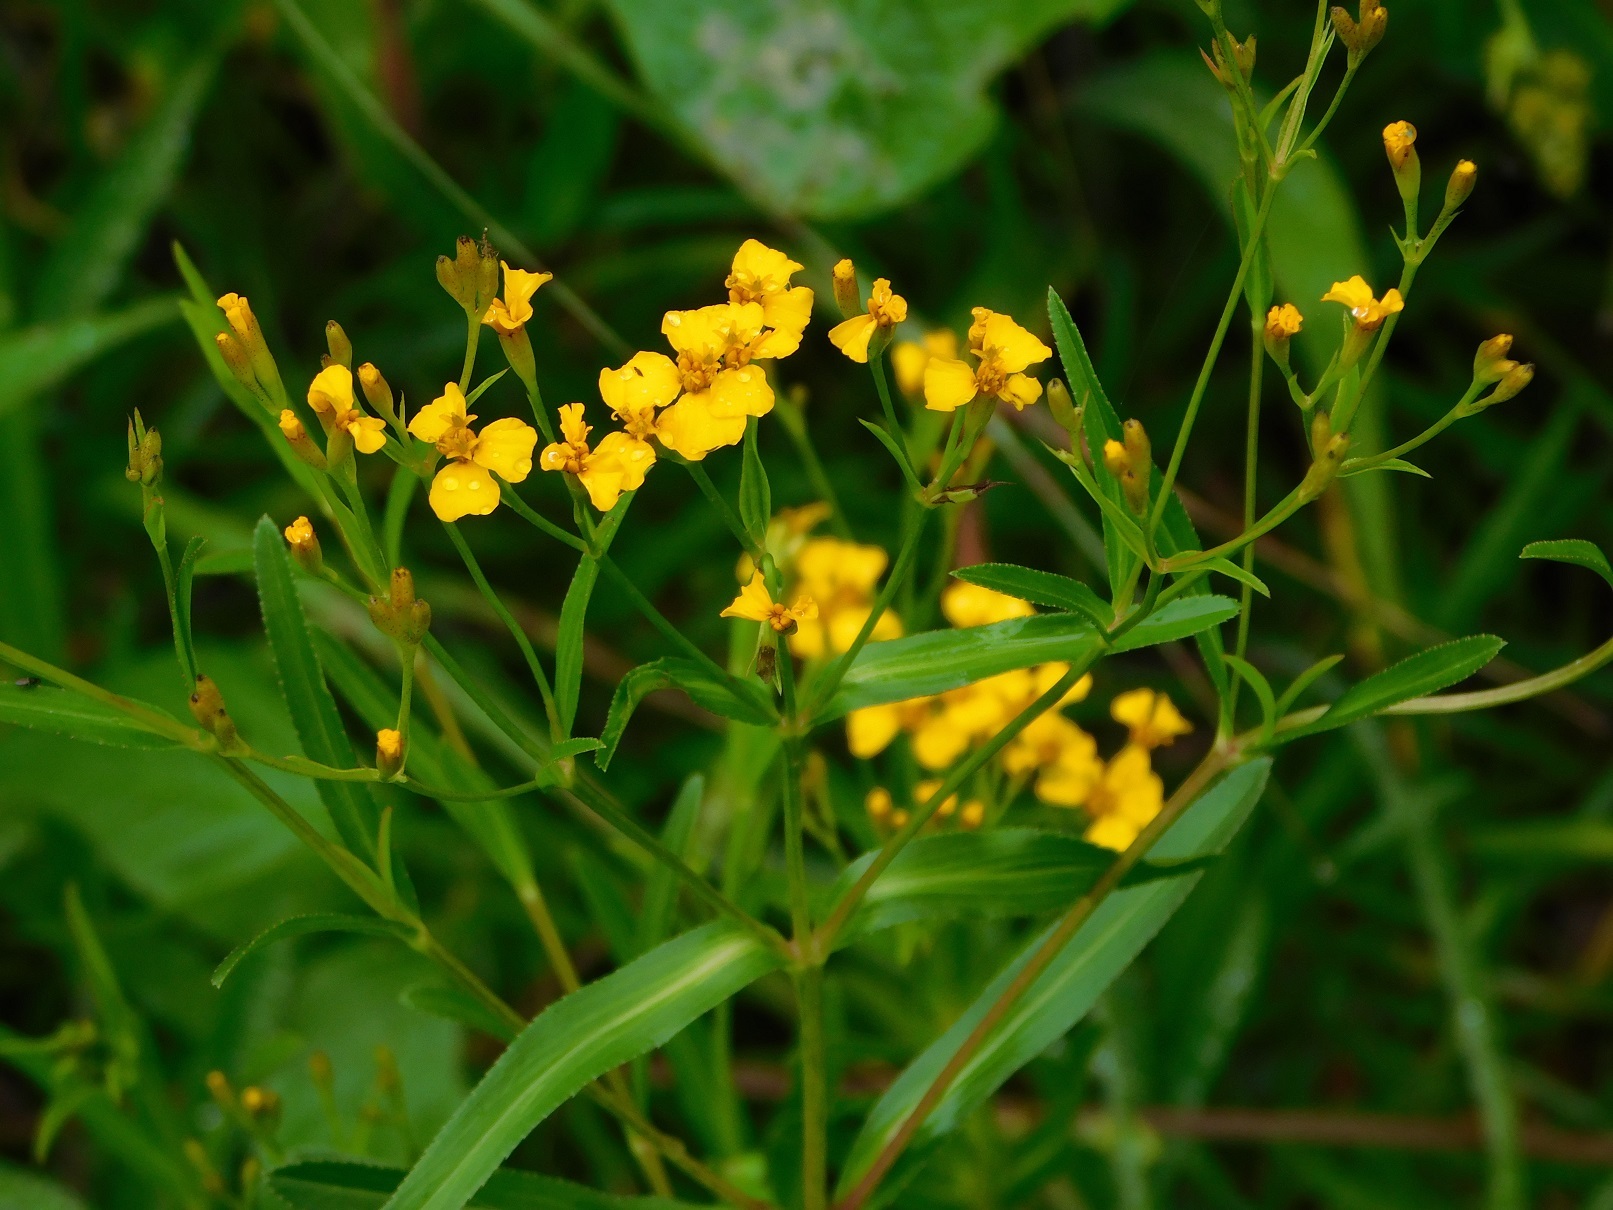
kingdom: Plantae
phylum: Tracheophyta
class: Magnoliopsida
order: Asterales
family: Asteraceae
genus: Tagetes
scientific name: Tagetes lucida
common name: Sweetscented marigold
